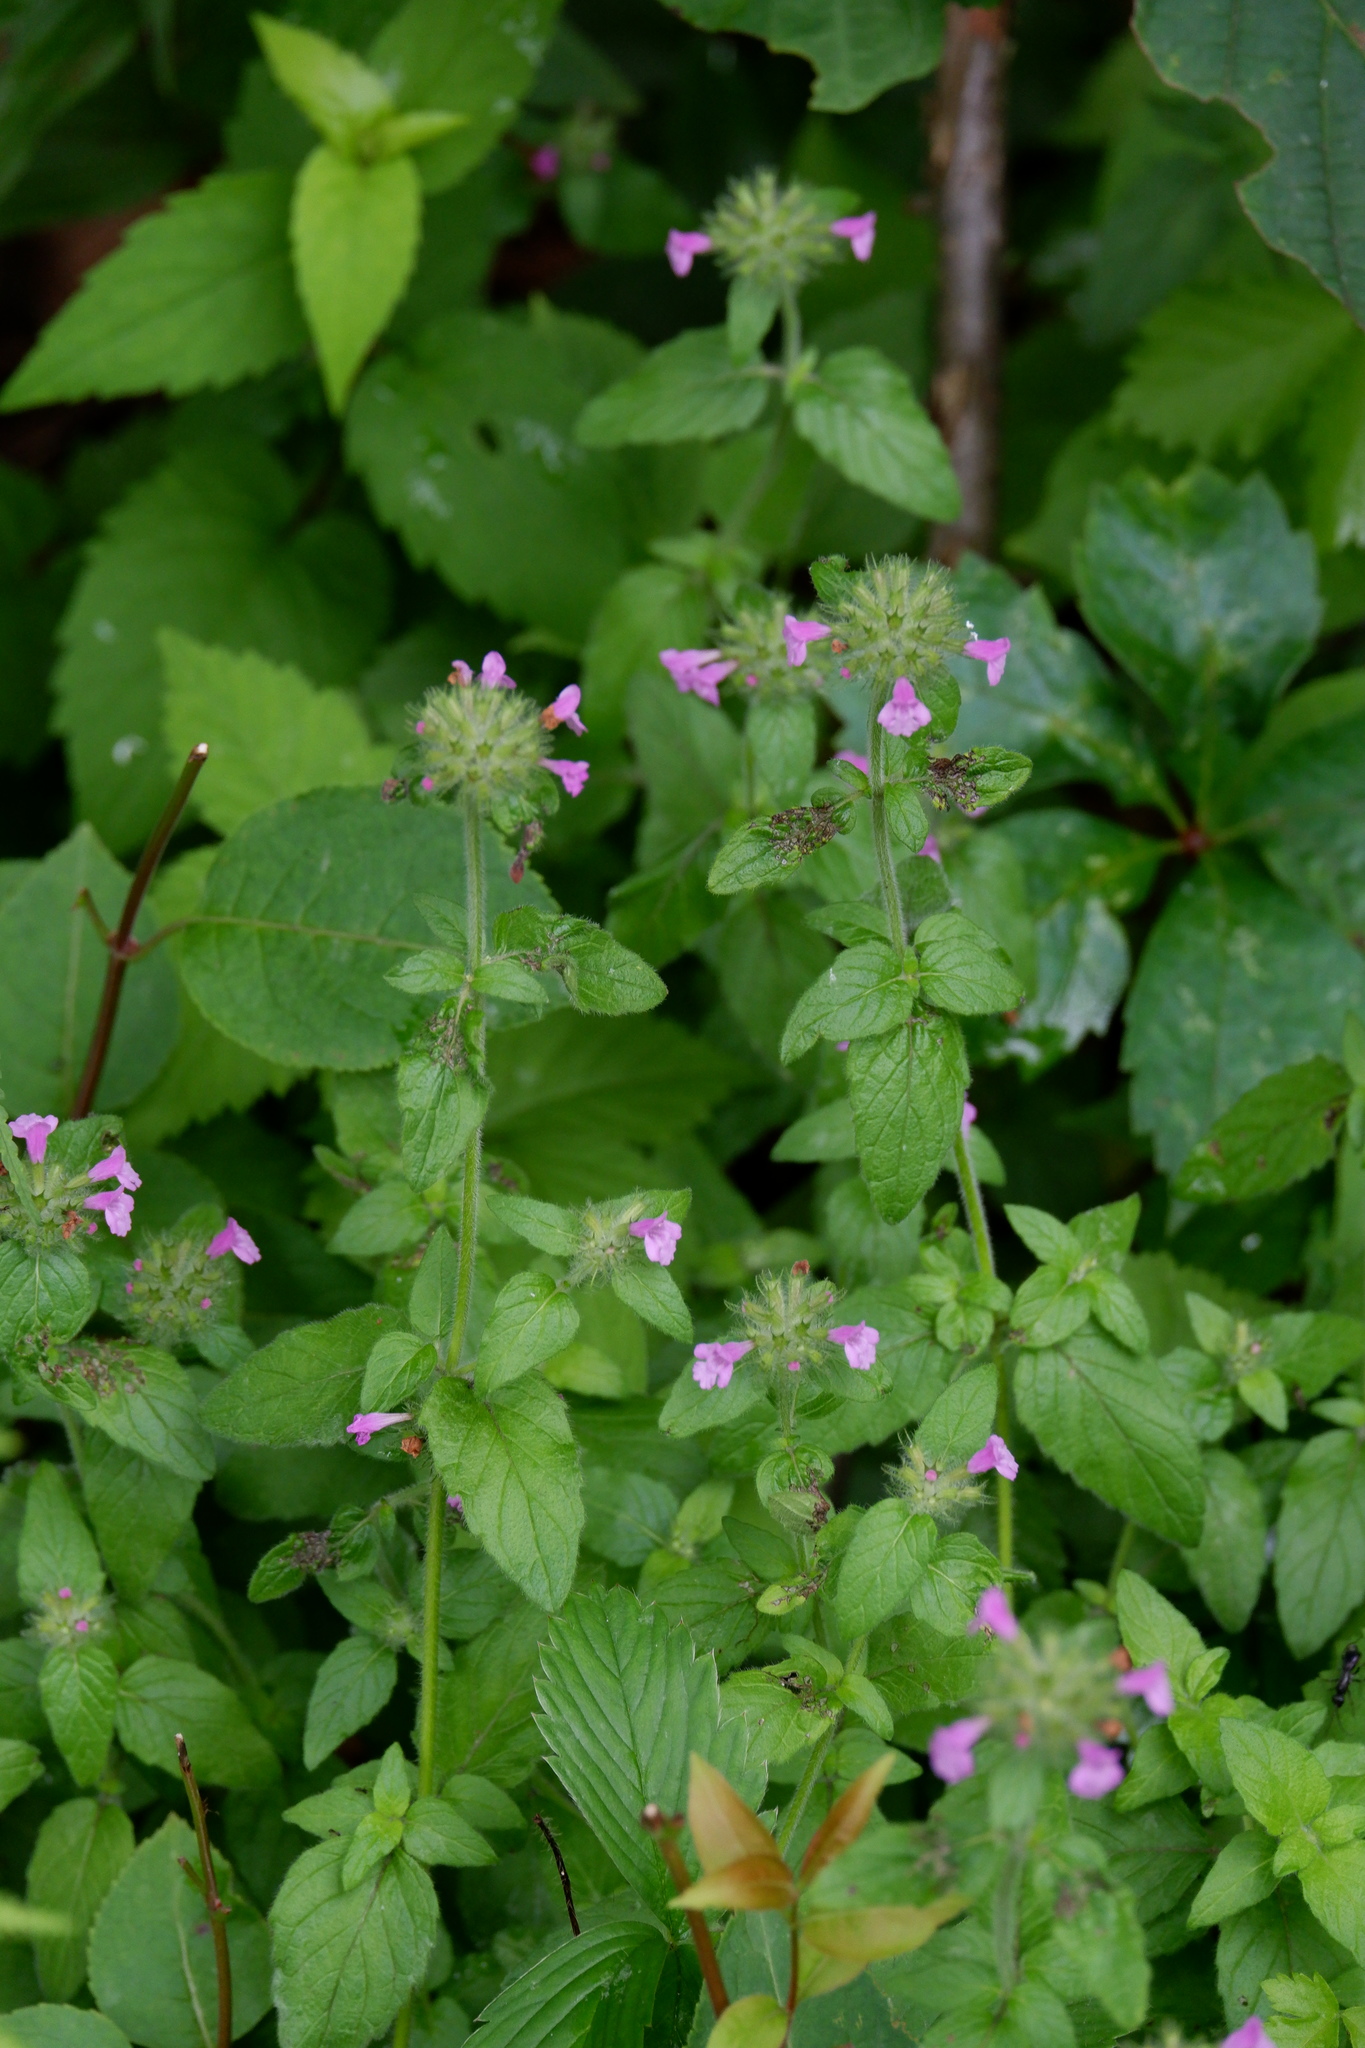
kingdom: Plantae
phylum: Tracheophyta
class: Magnoliopsida
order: Lamiales
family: Lamiaceae
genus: Clinopodium
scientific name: Clinopodium vulgare
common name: Wild basil
